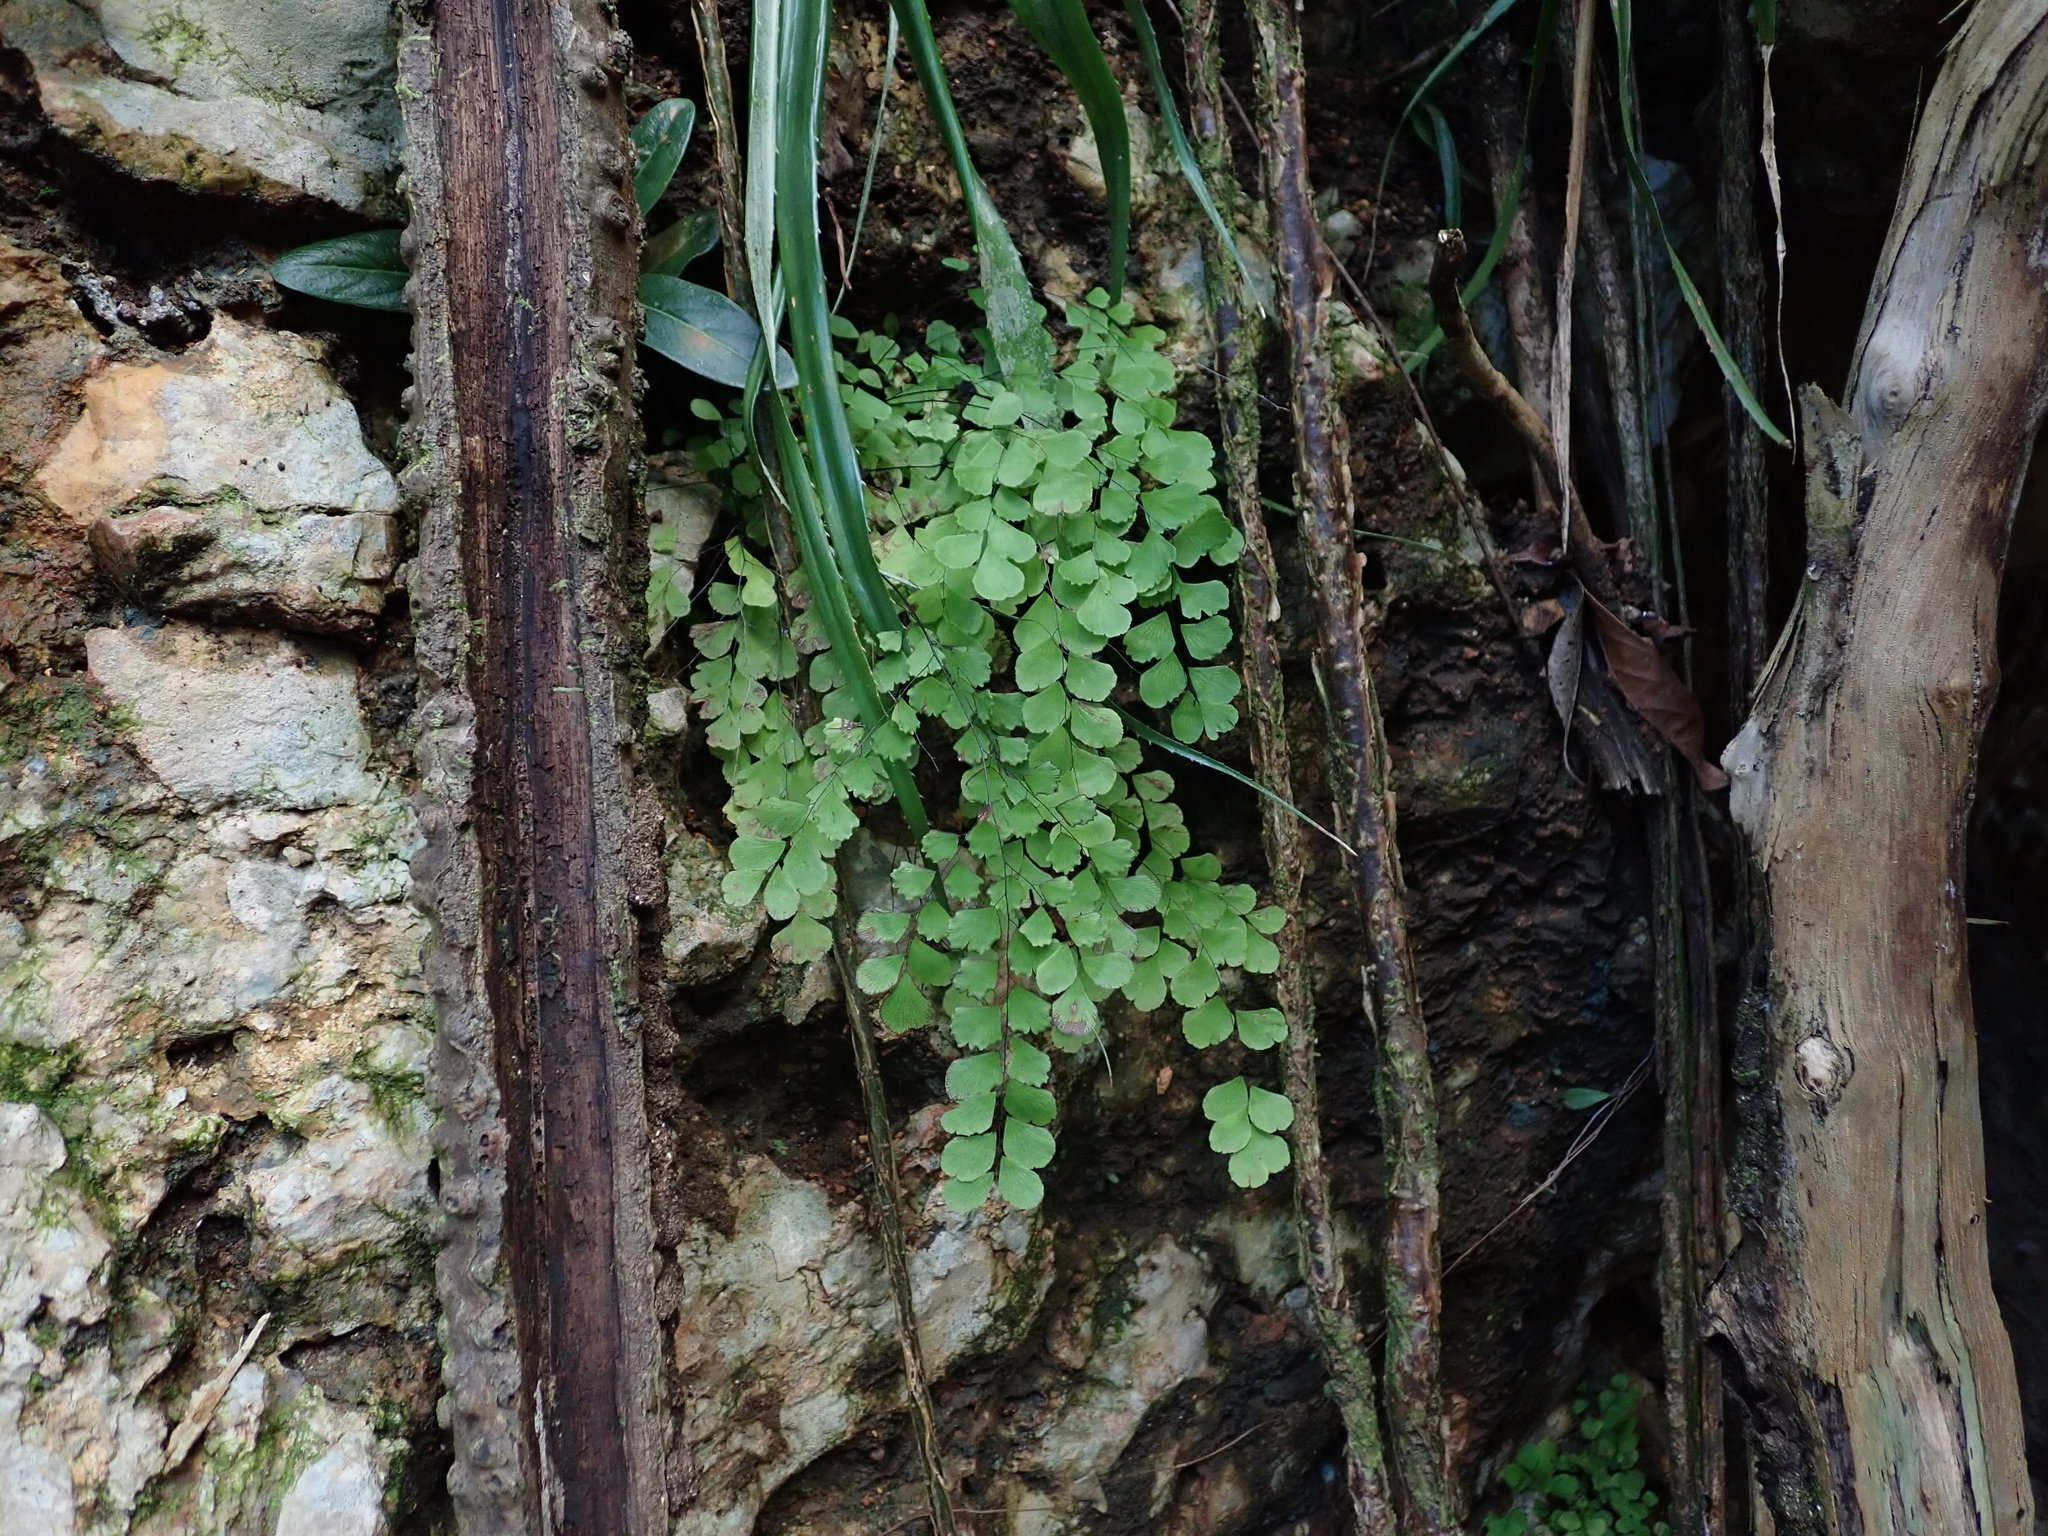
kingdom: Plantae
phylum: Tracheophyta
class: Polypodiopsida
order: Polypodiales
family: Pteridaceae
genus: Adiantum
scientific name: Adiantum fragile
